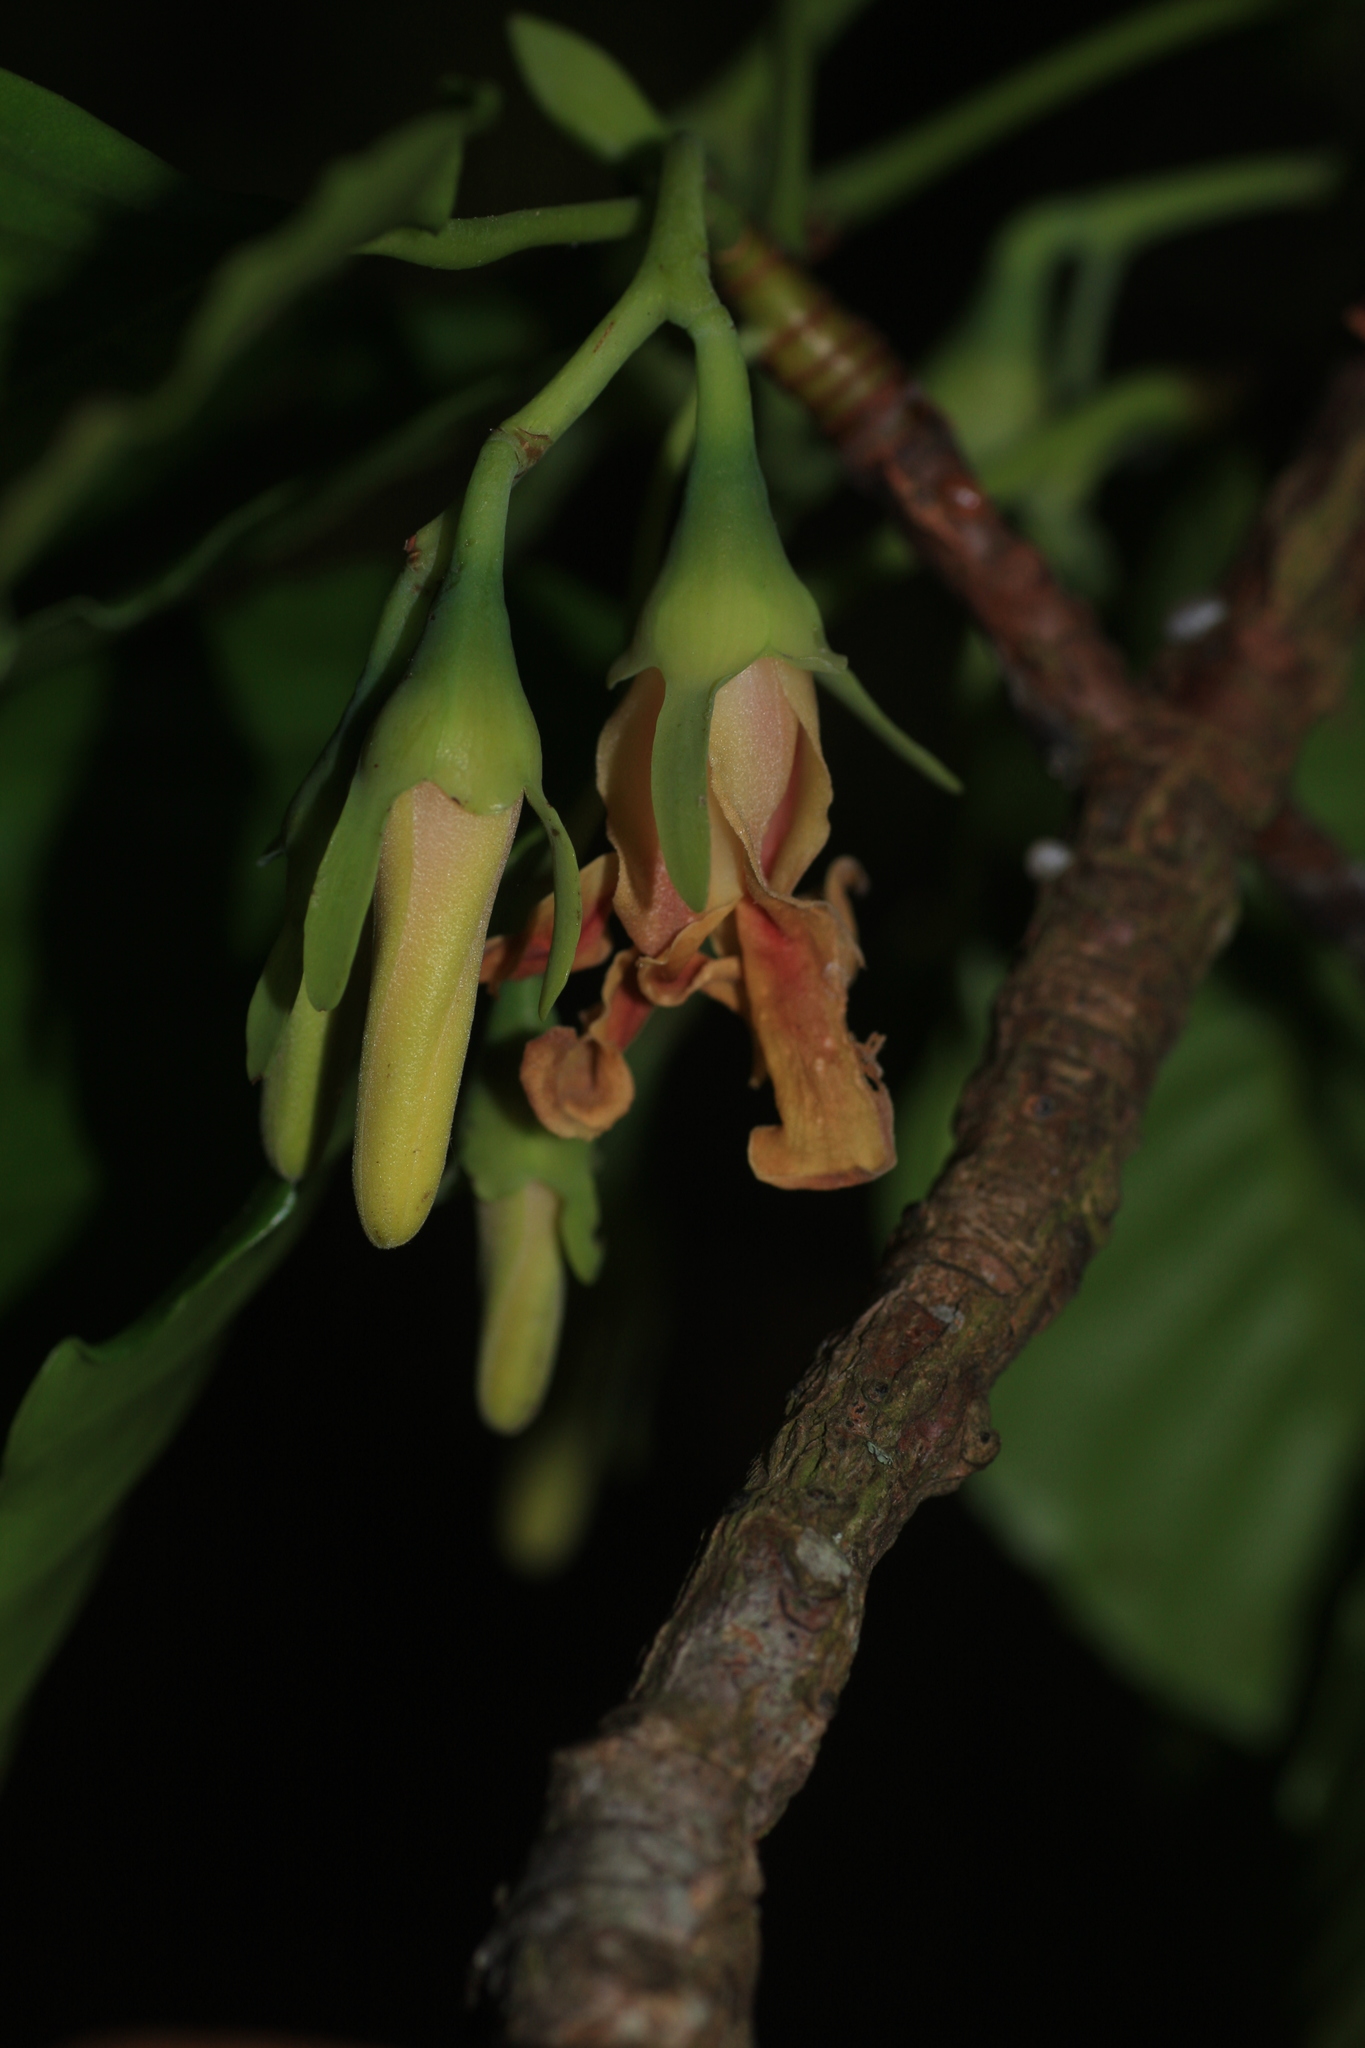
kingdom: Plantae
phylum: Tracheophyta
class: Magnoliopsida
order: Malvales
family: Dipterocarpaceae
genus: Dipterocarpus
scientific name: Dipterocarpus indicus
